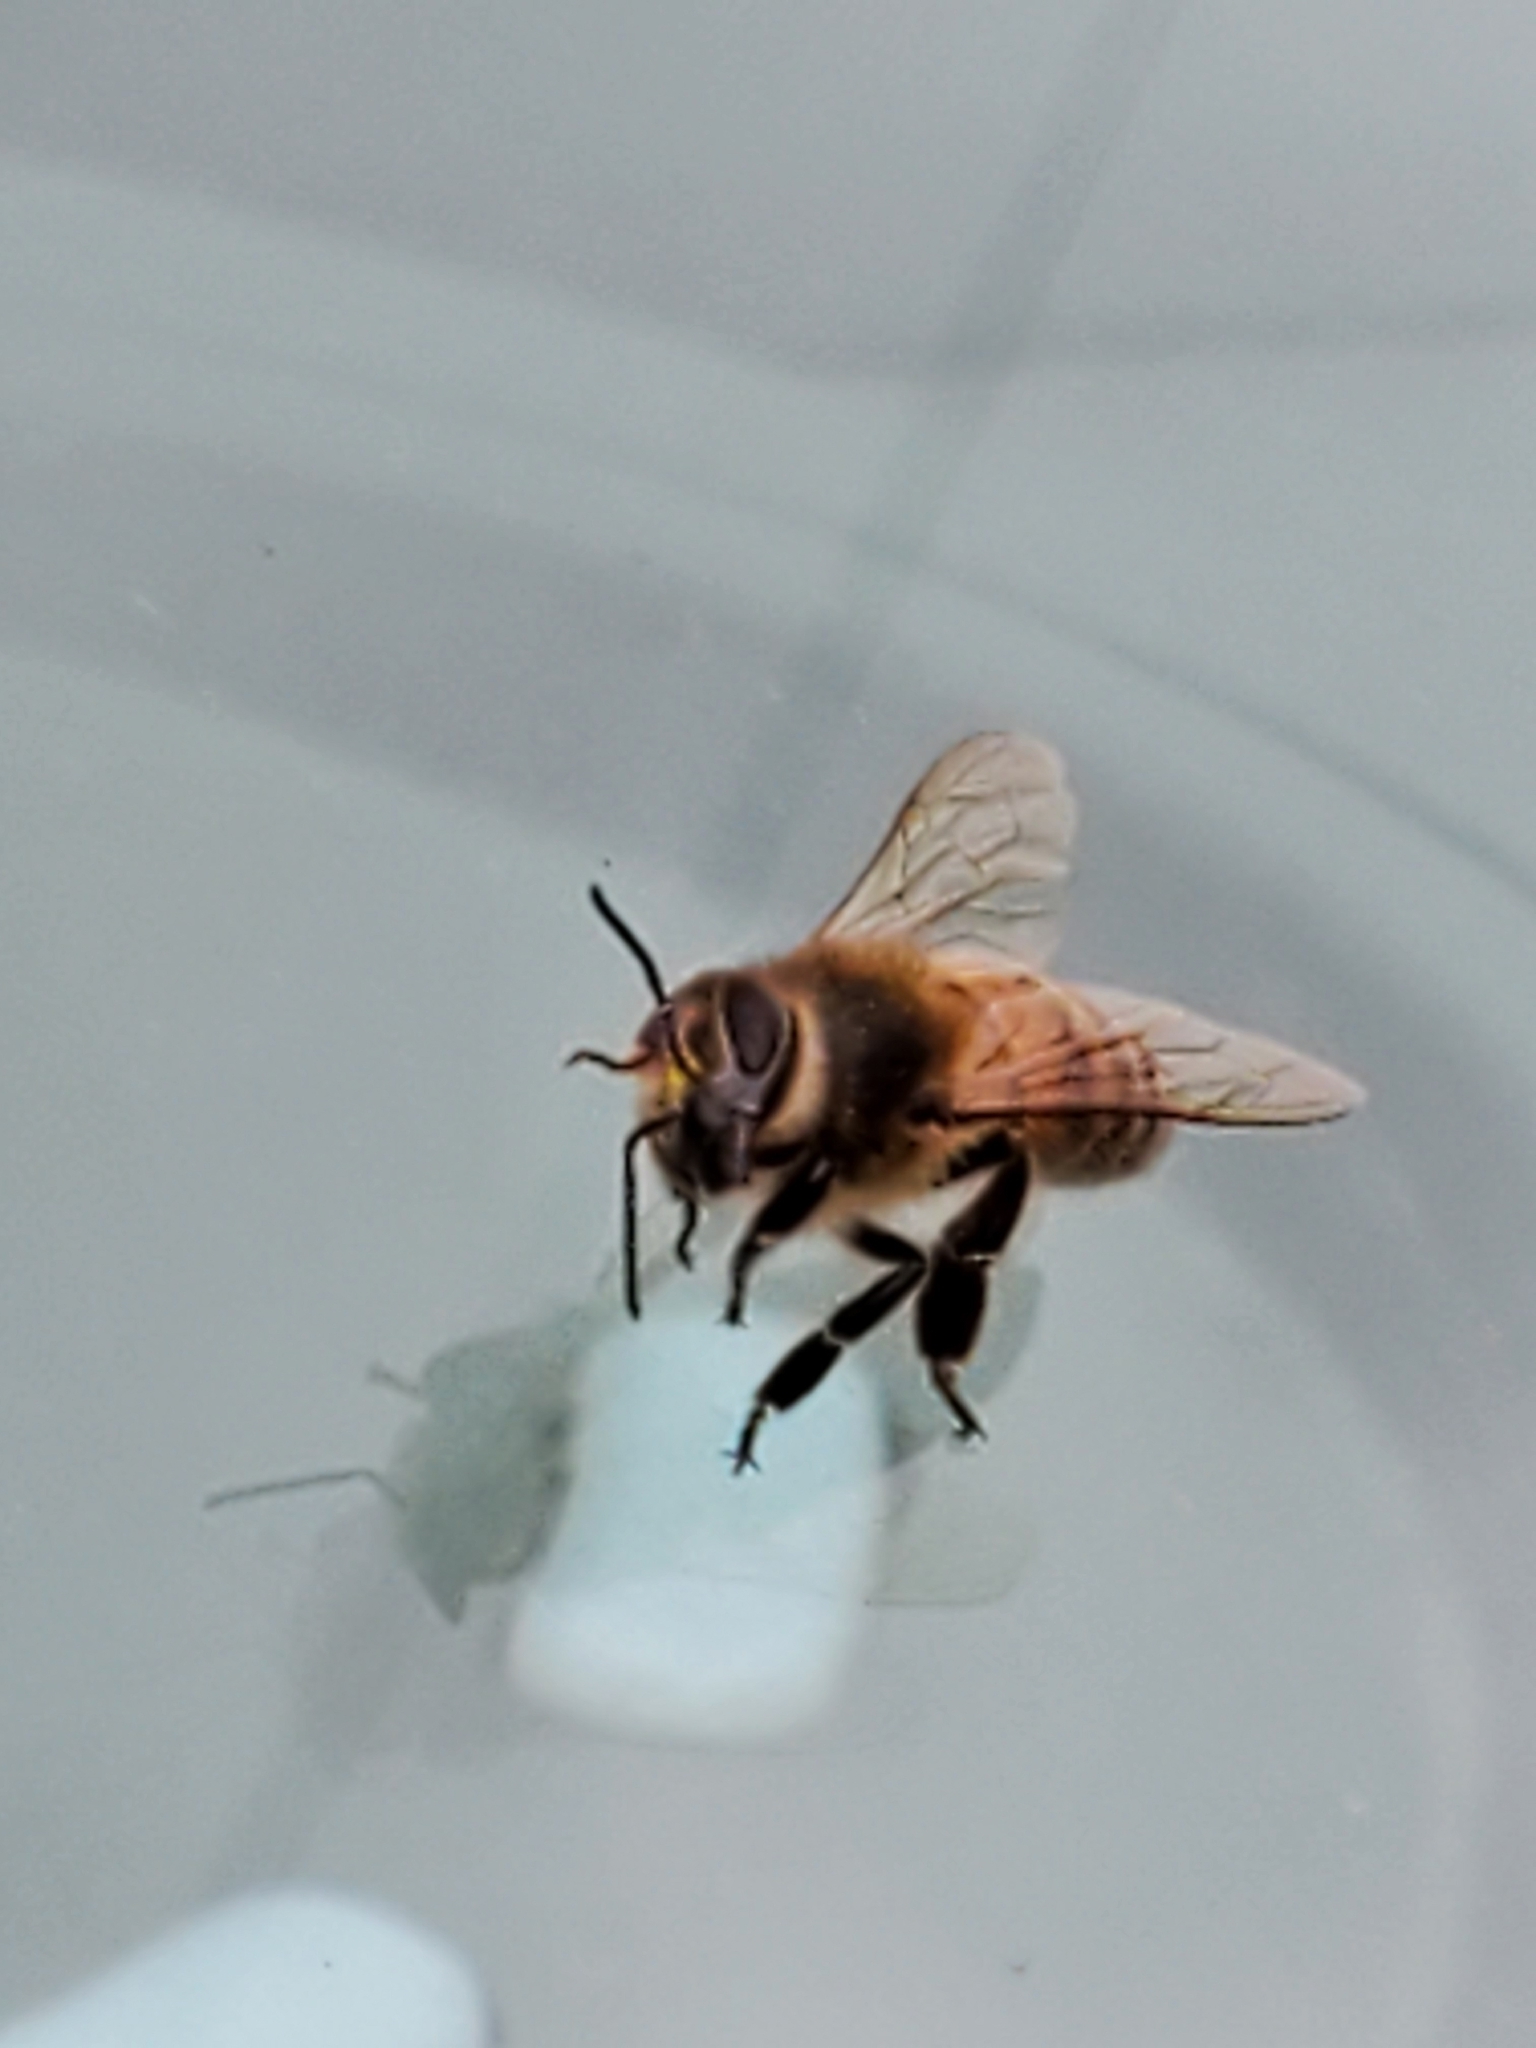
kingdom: Animalia
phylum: Arthropoda
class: Insecta
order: Hymenoptera
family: Apidae
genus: Apis
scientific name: Apis mellifera
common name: Honey bee
